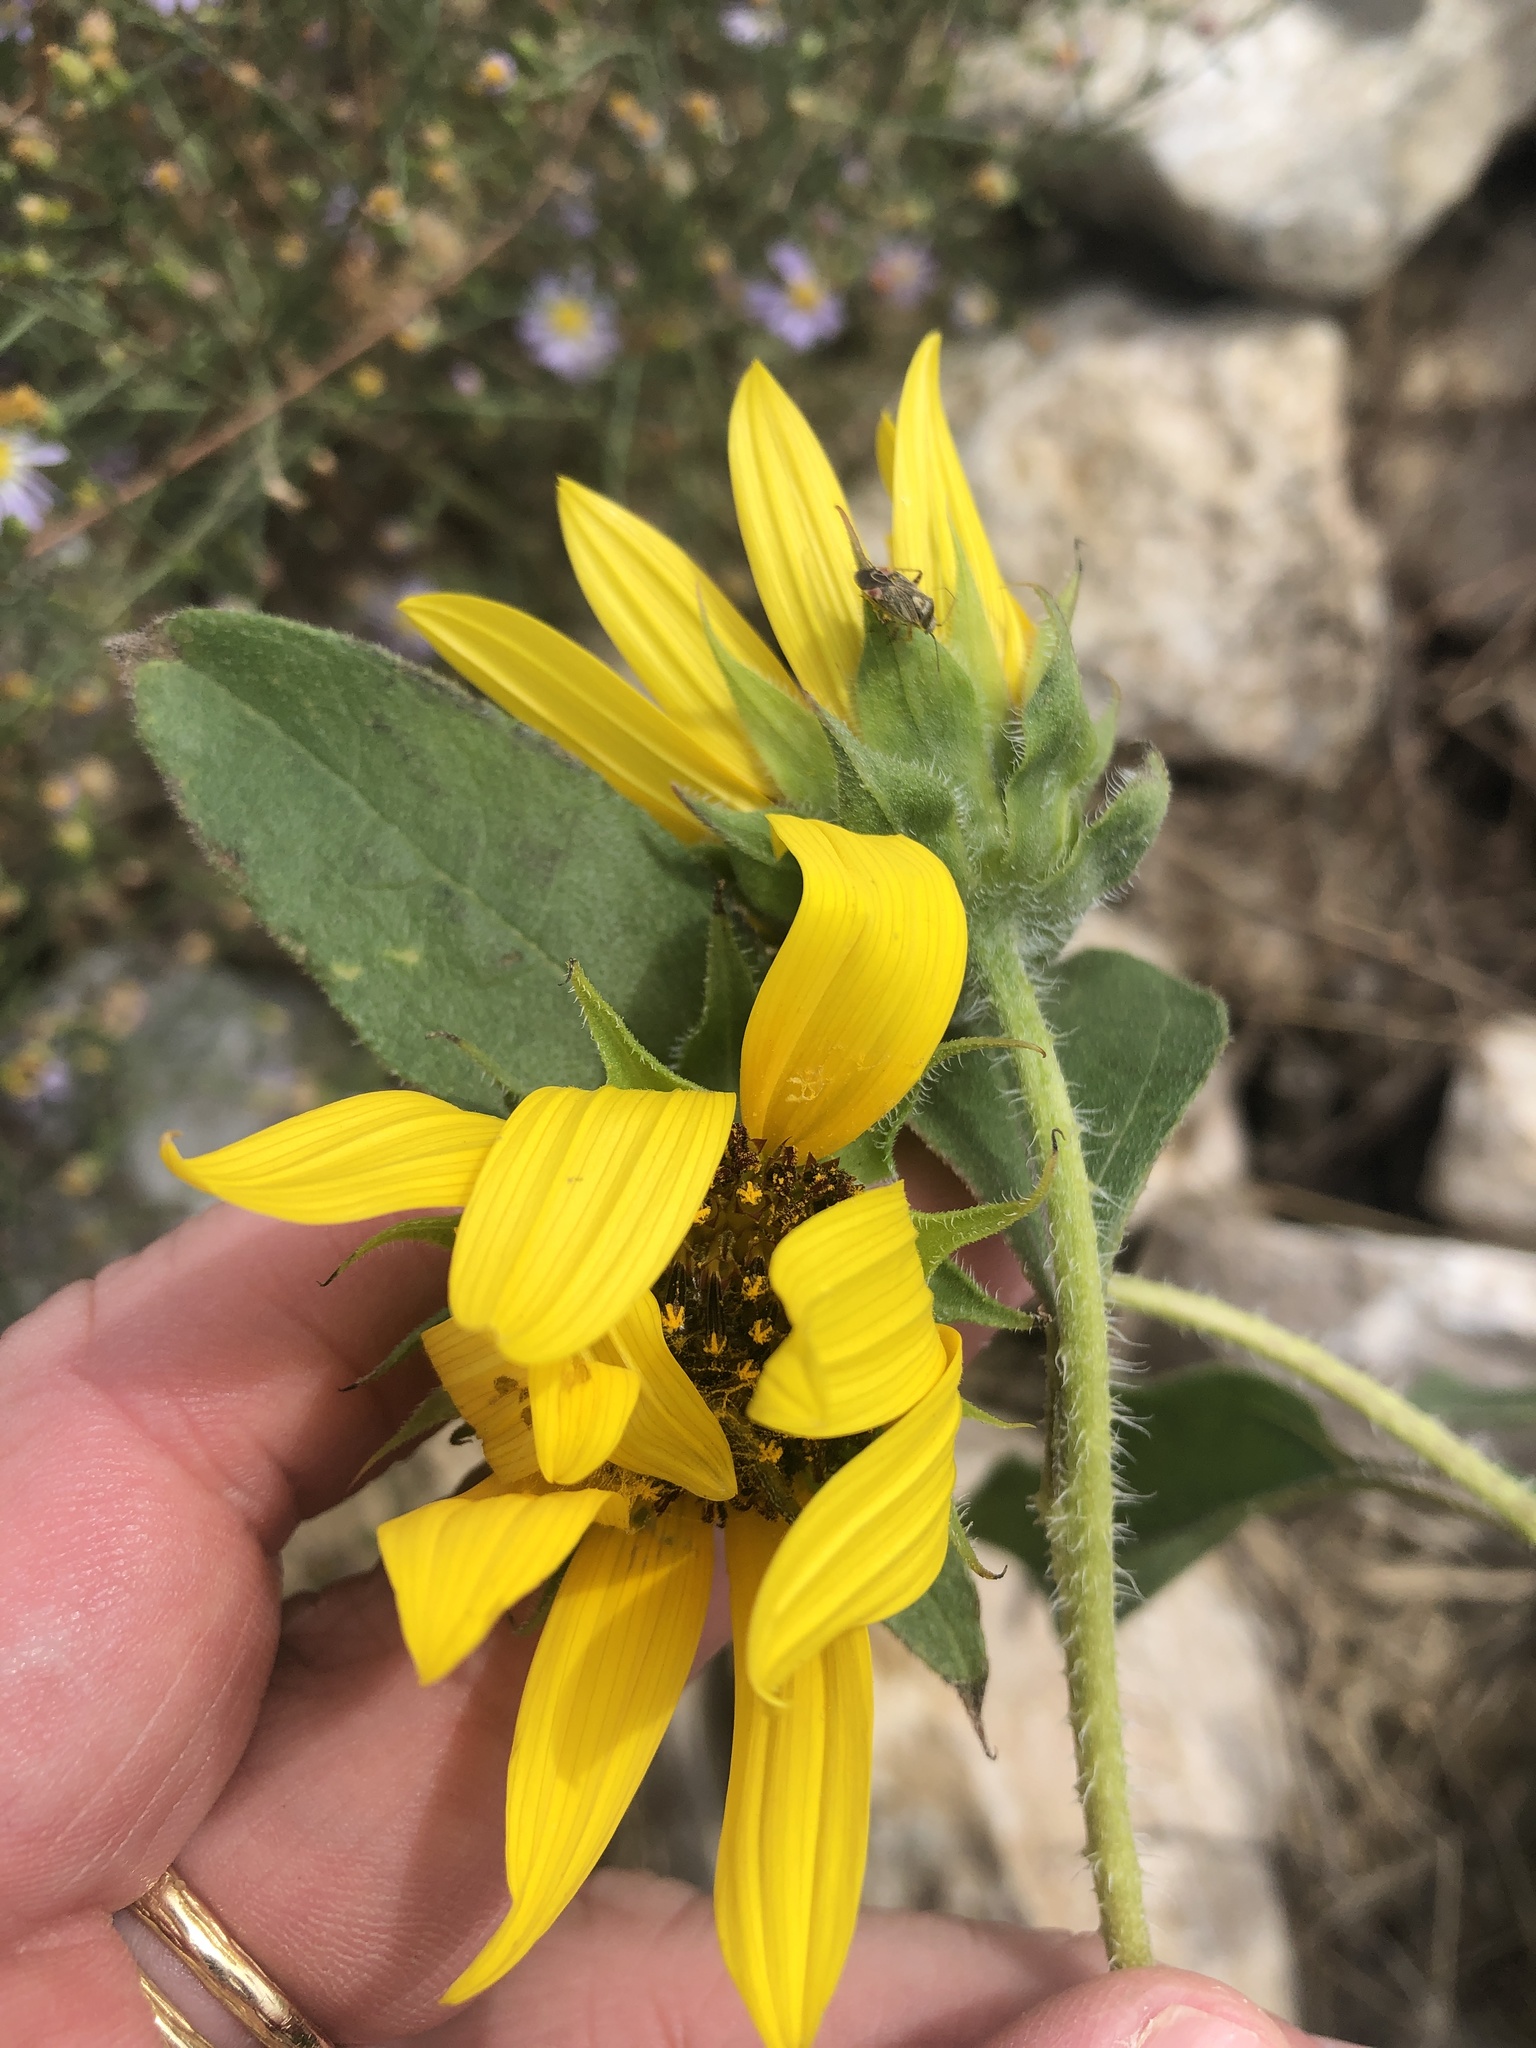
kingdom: Plantae
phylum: Tracheophyta
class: Magnoliopsida
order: Asterales
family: Asteraceae
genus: Helianthus
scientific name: Helianthus annuus
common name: Sunflower
